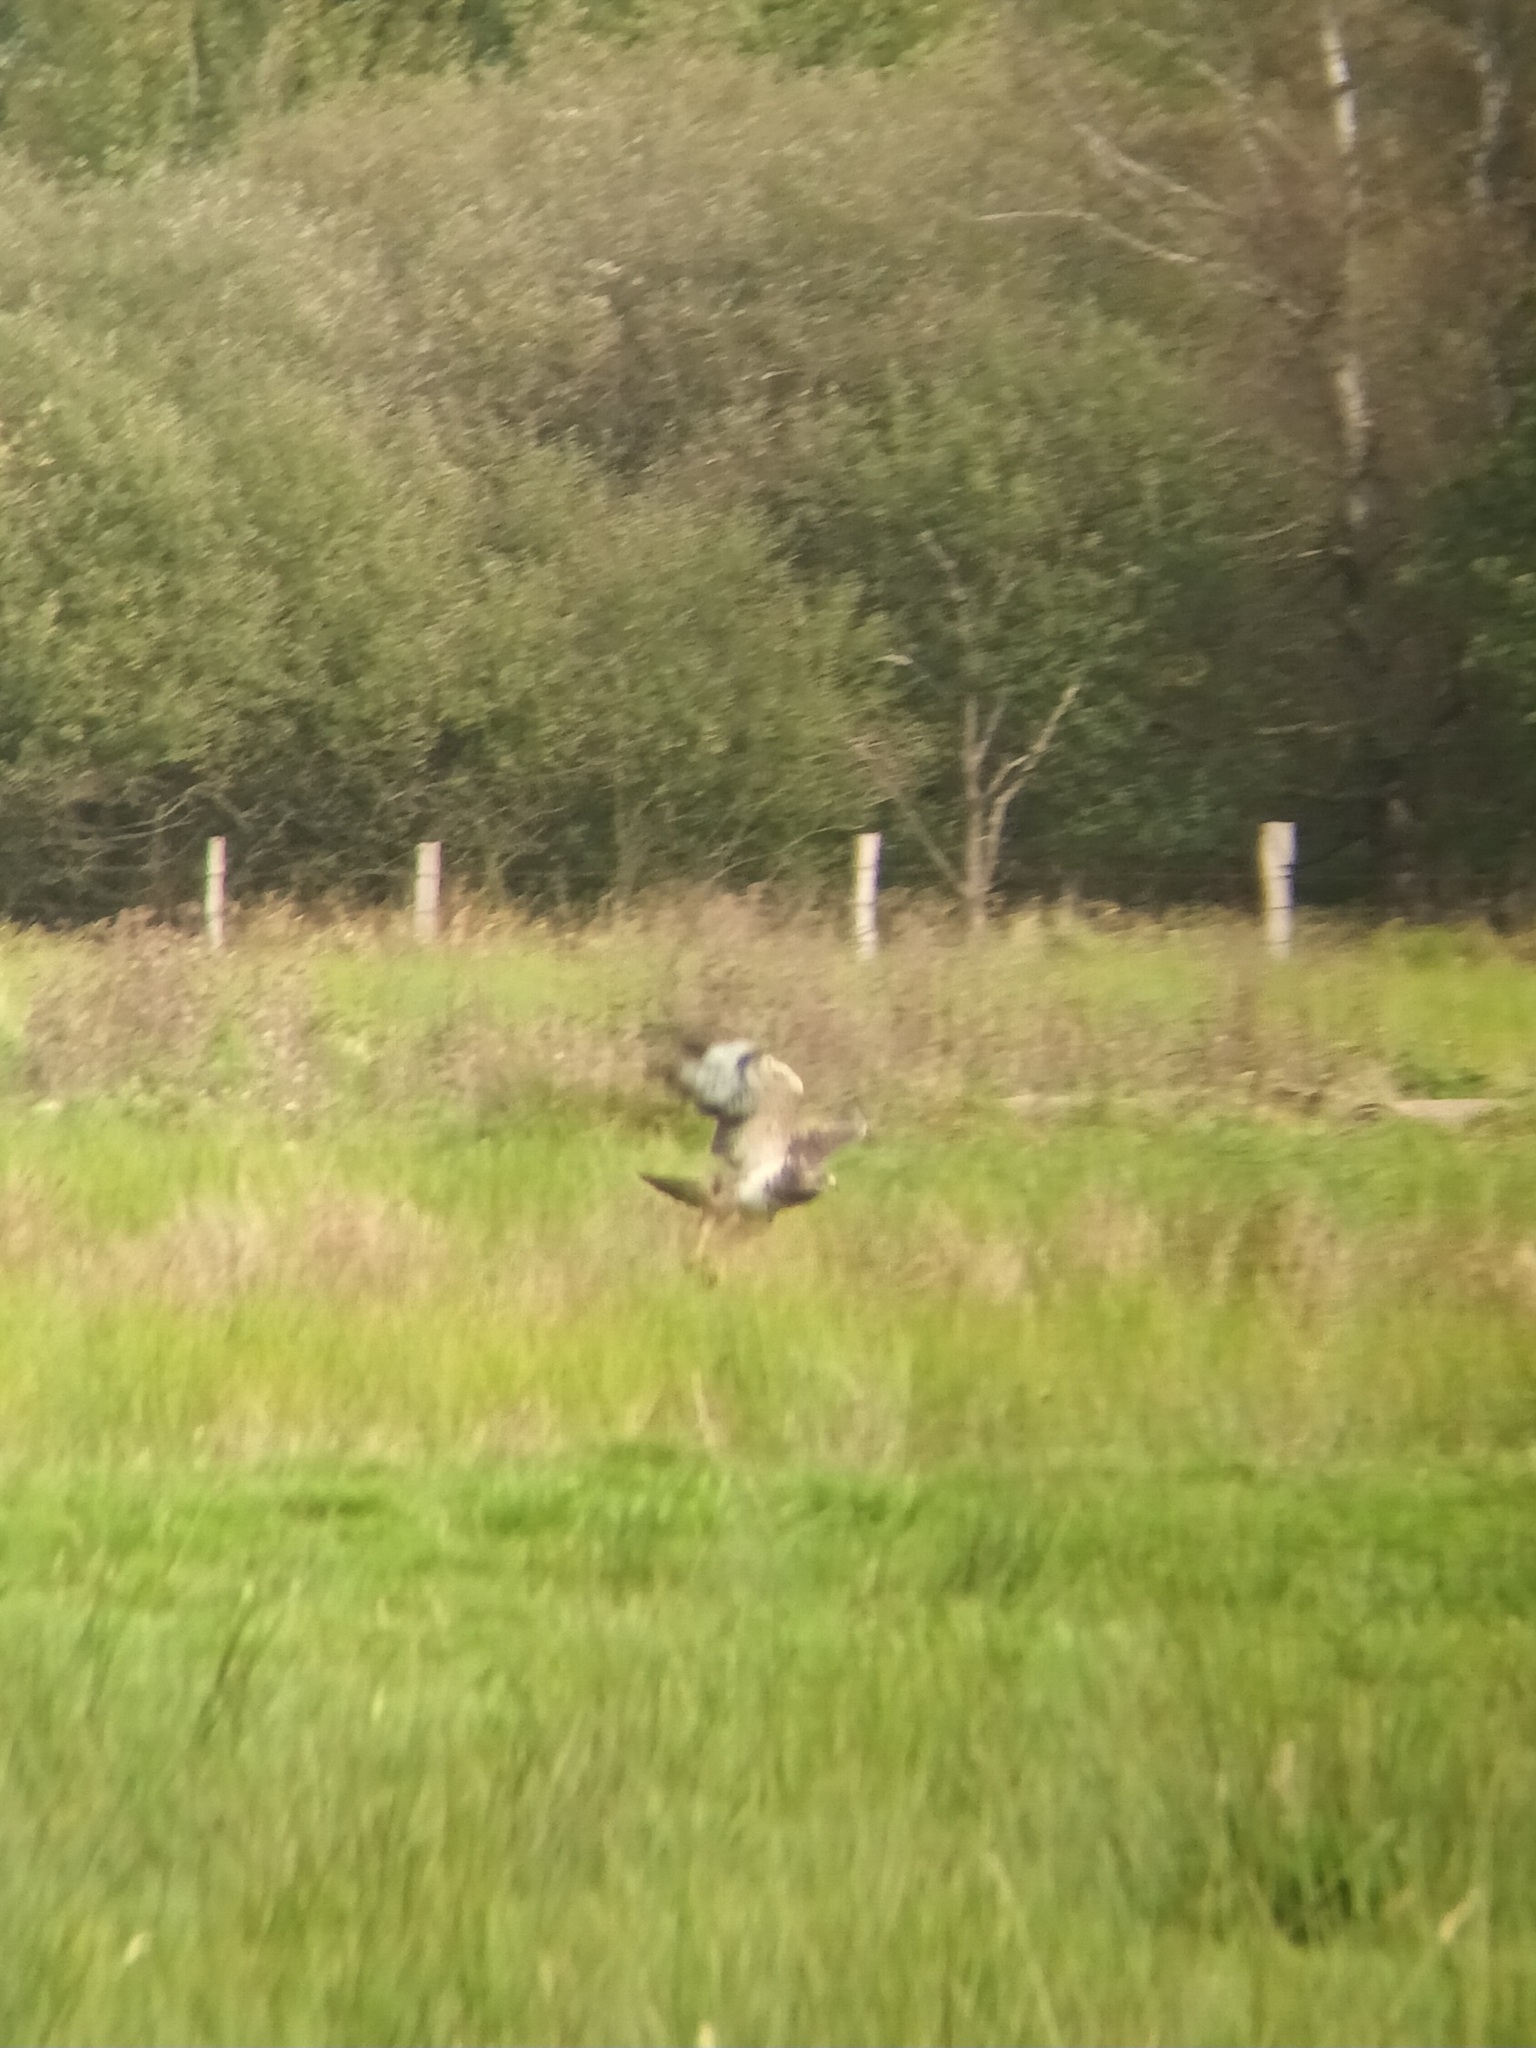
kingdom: Animalia
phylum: Chordata
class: Aves
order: Accipitriformes
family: Accipitridae
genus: Buteo
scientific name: Buteo buteo
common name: Common buzzard
